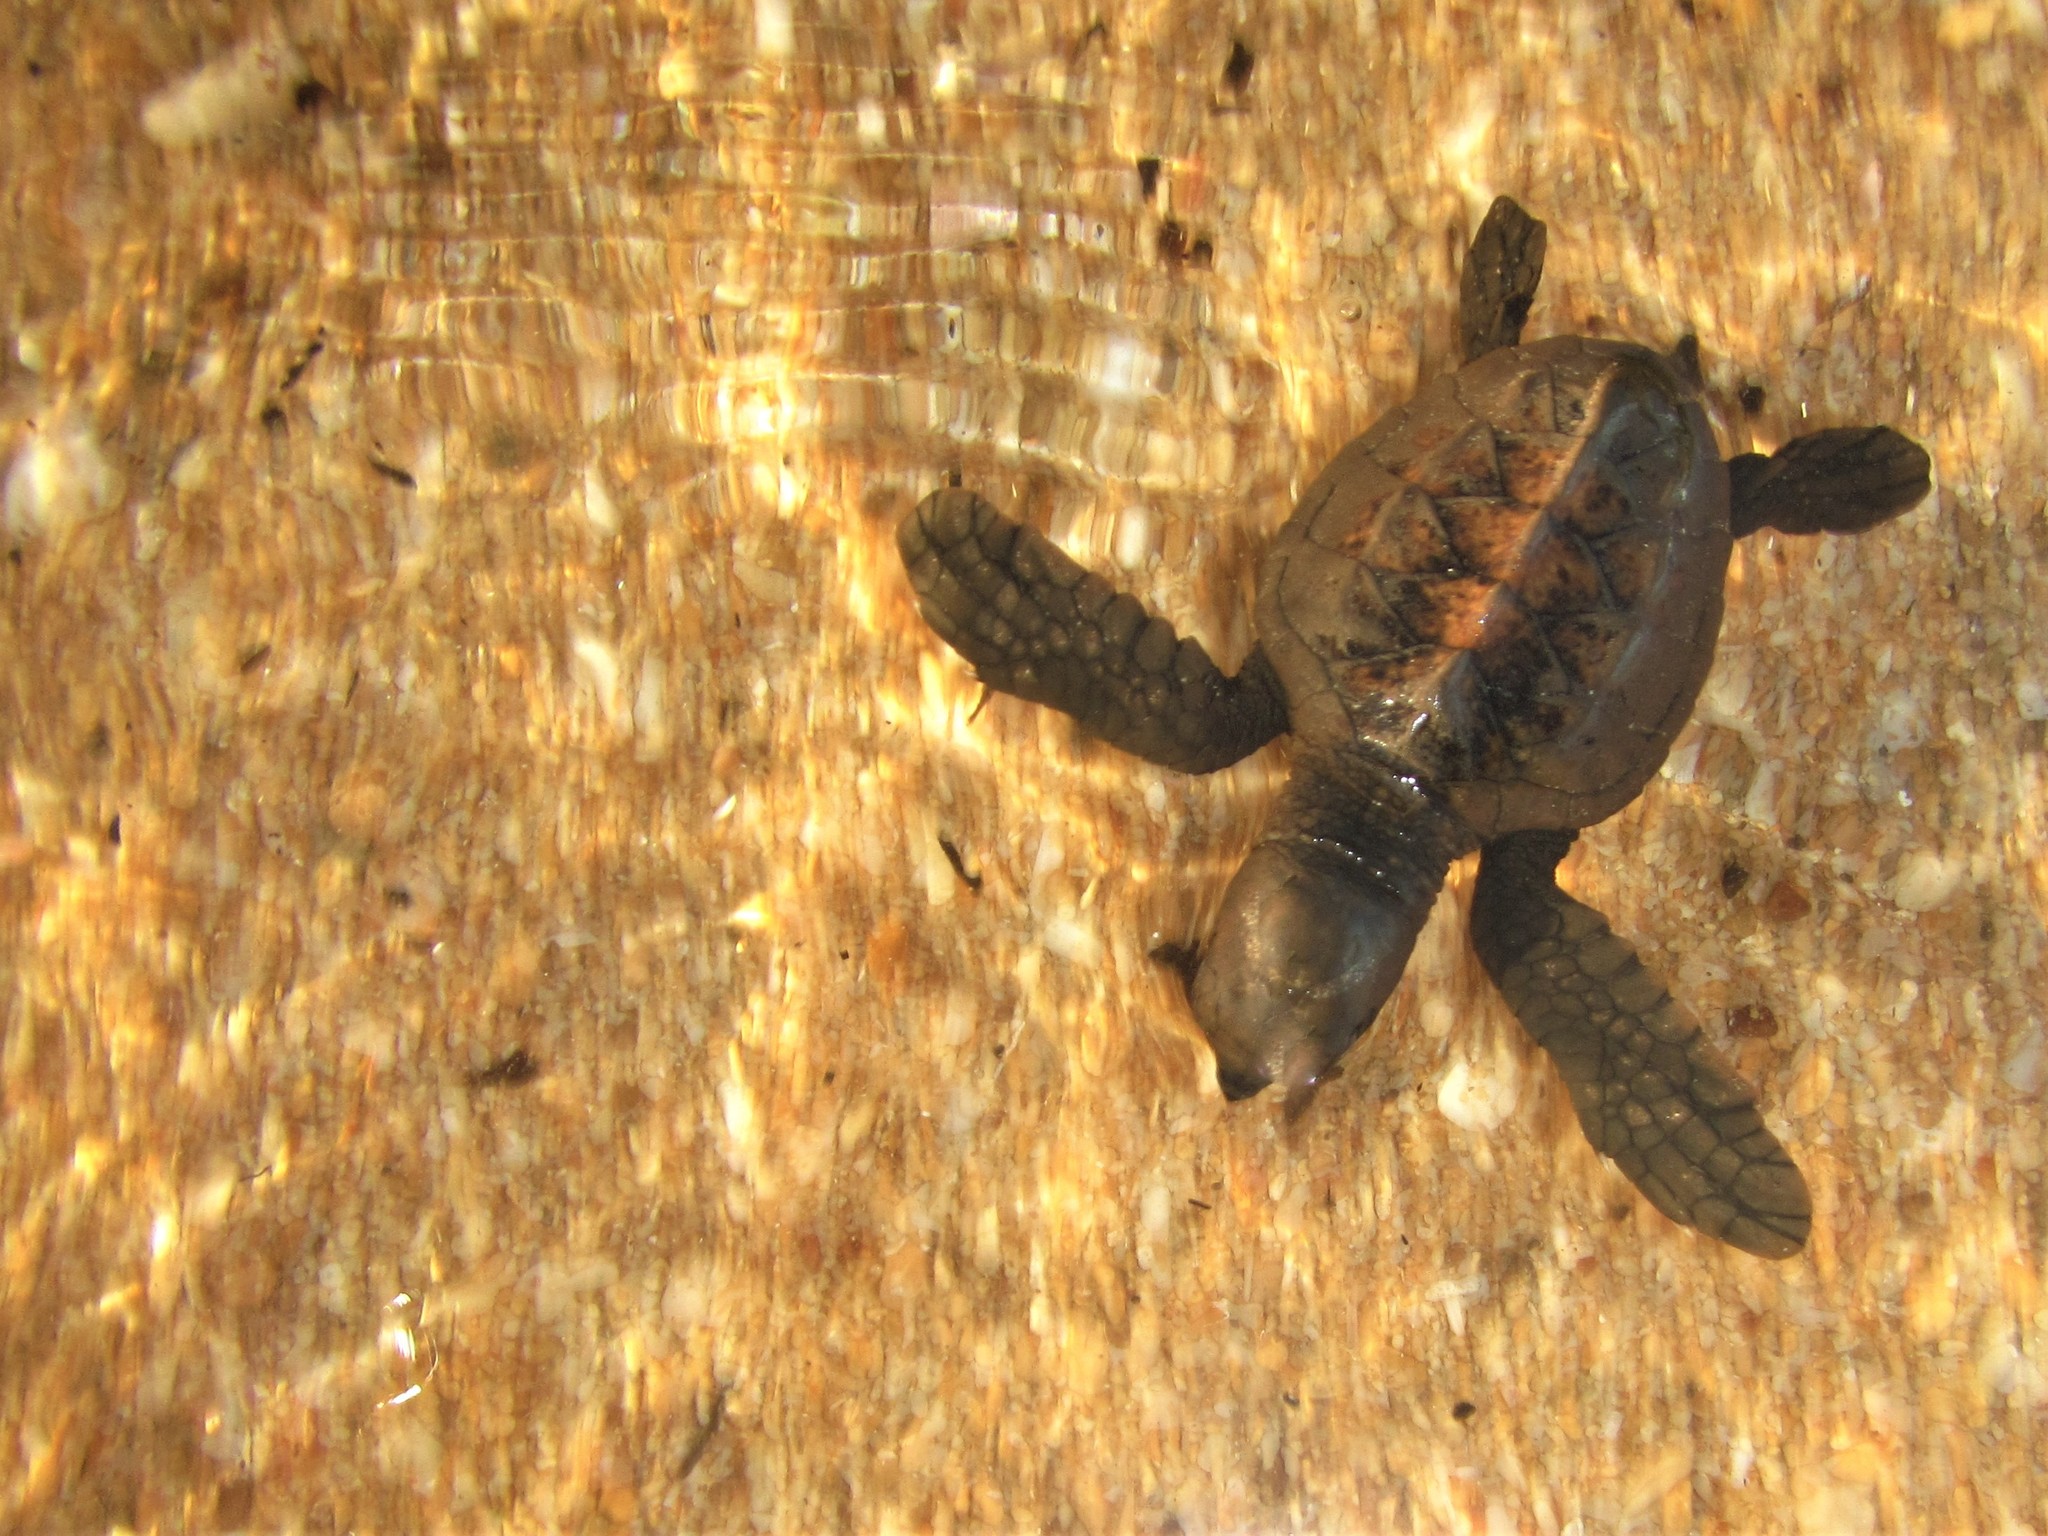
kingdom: Animalia
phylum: Chordata
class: Testudines
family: Cheloniidae
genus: Eretmochelys
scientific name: Eretmochelys imbricata
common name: Hawksbill turtle
